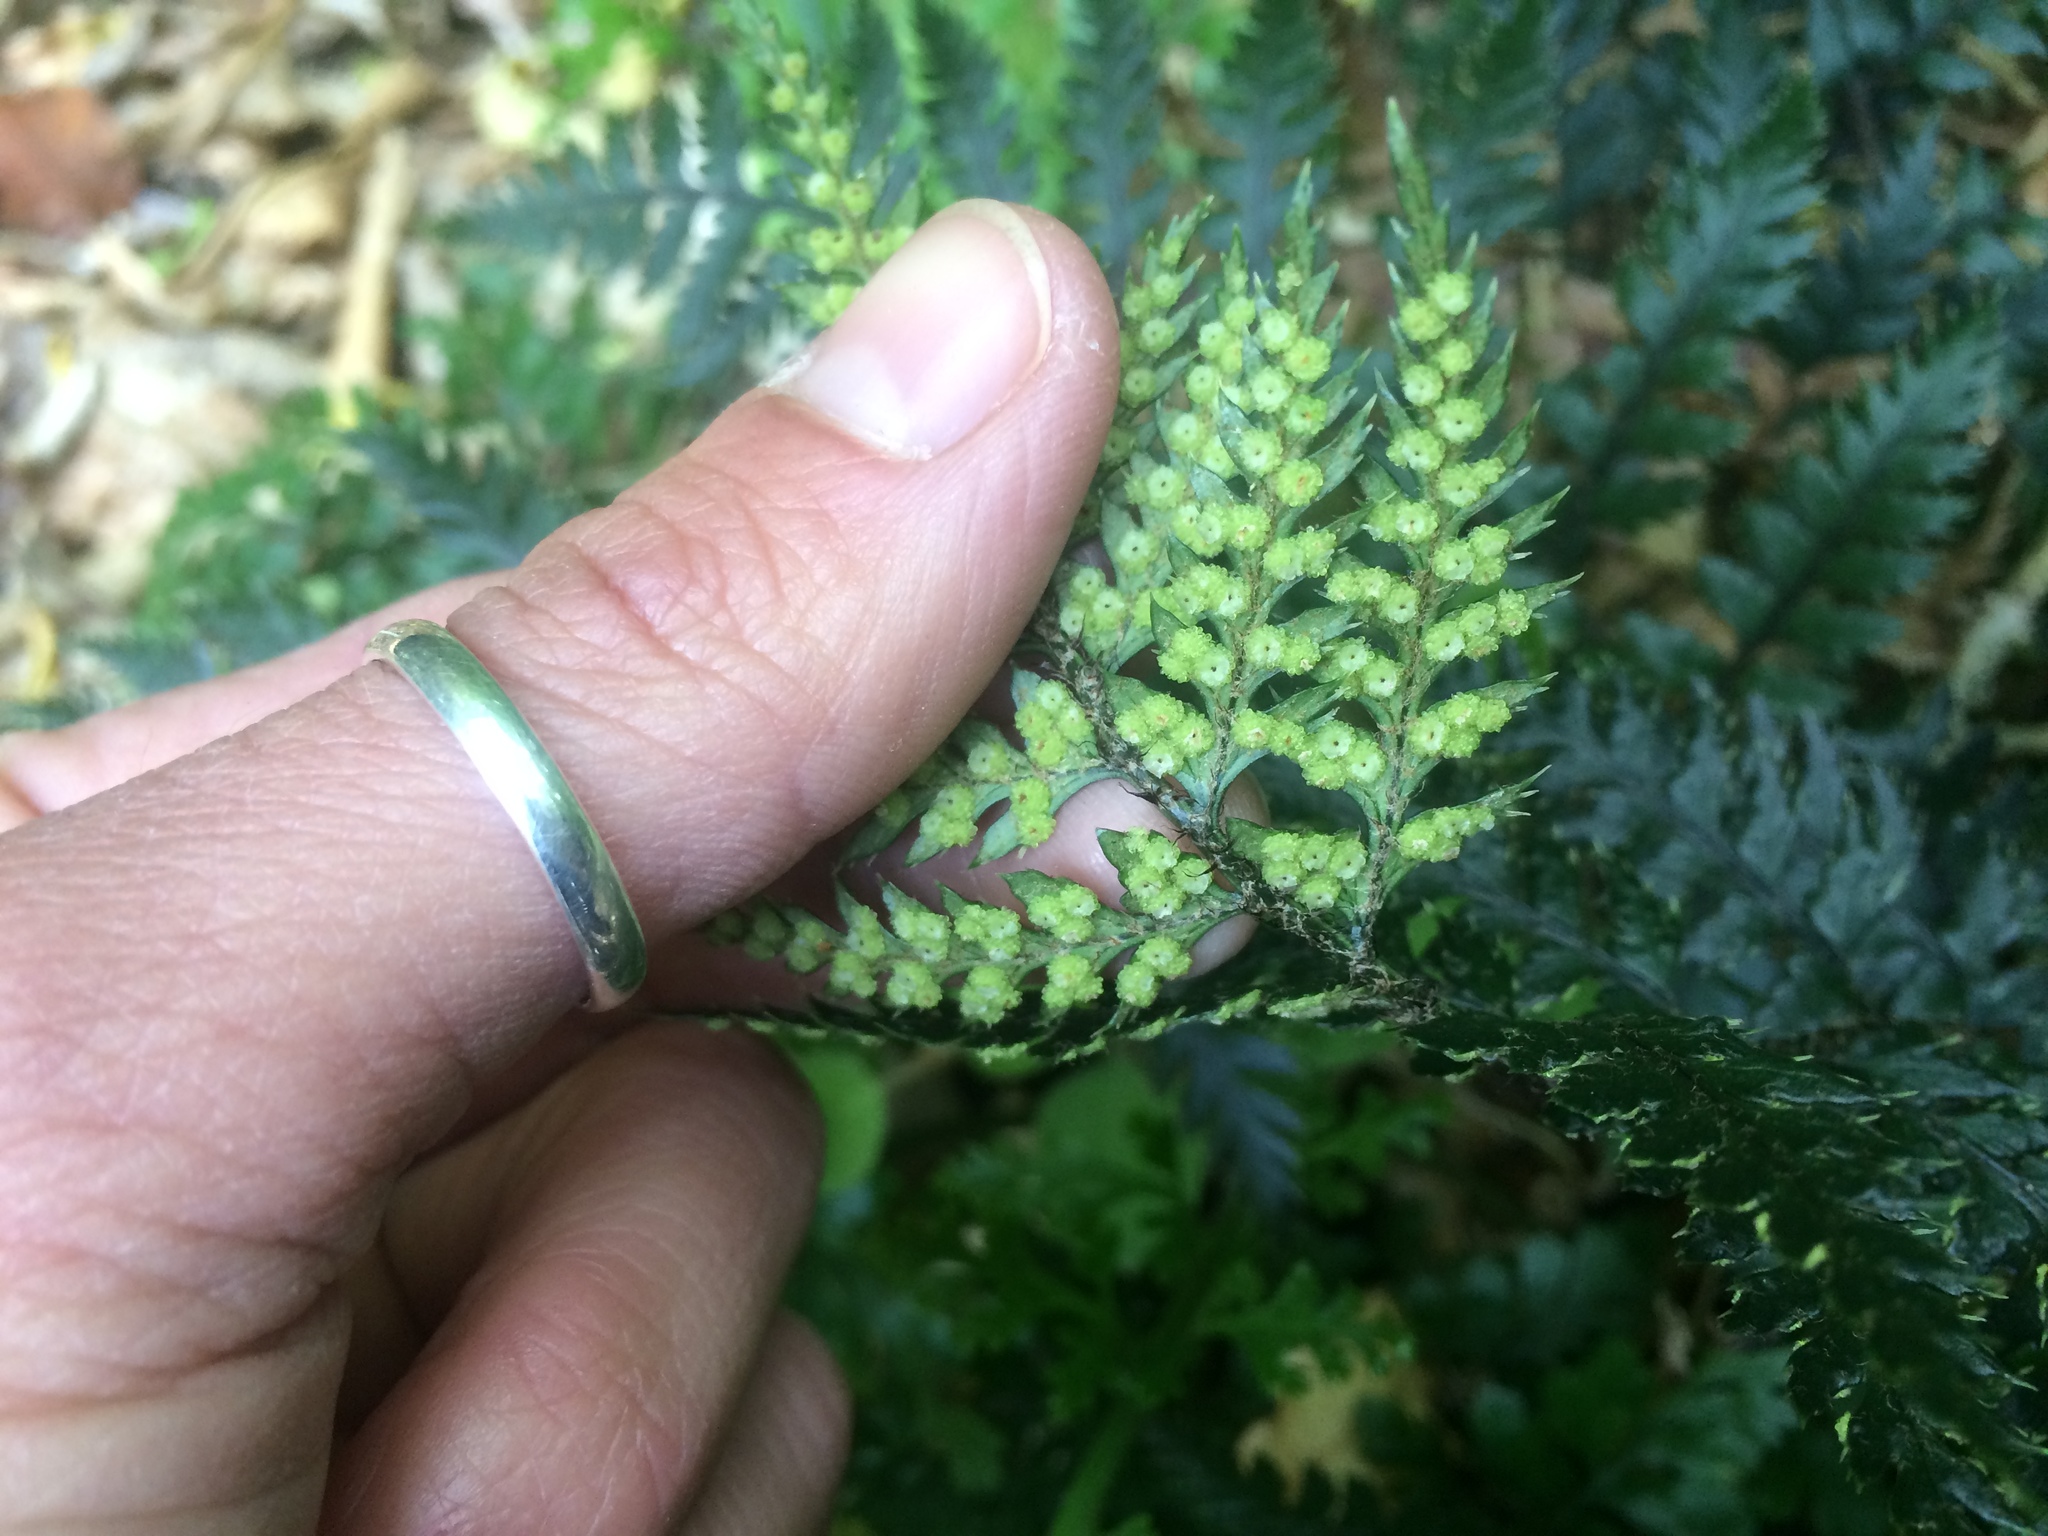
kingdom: Plantae
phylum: Tracheophyta
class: Polypodiopsida
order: Polypodiales
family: Dryopteridaceae
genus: Polystichum
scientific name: Polystichum neozelandicum
